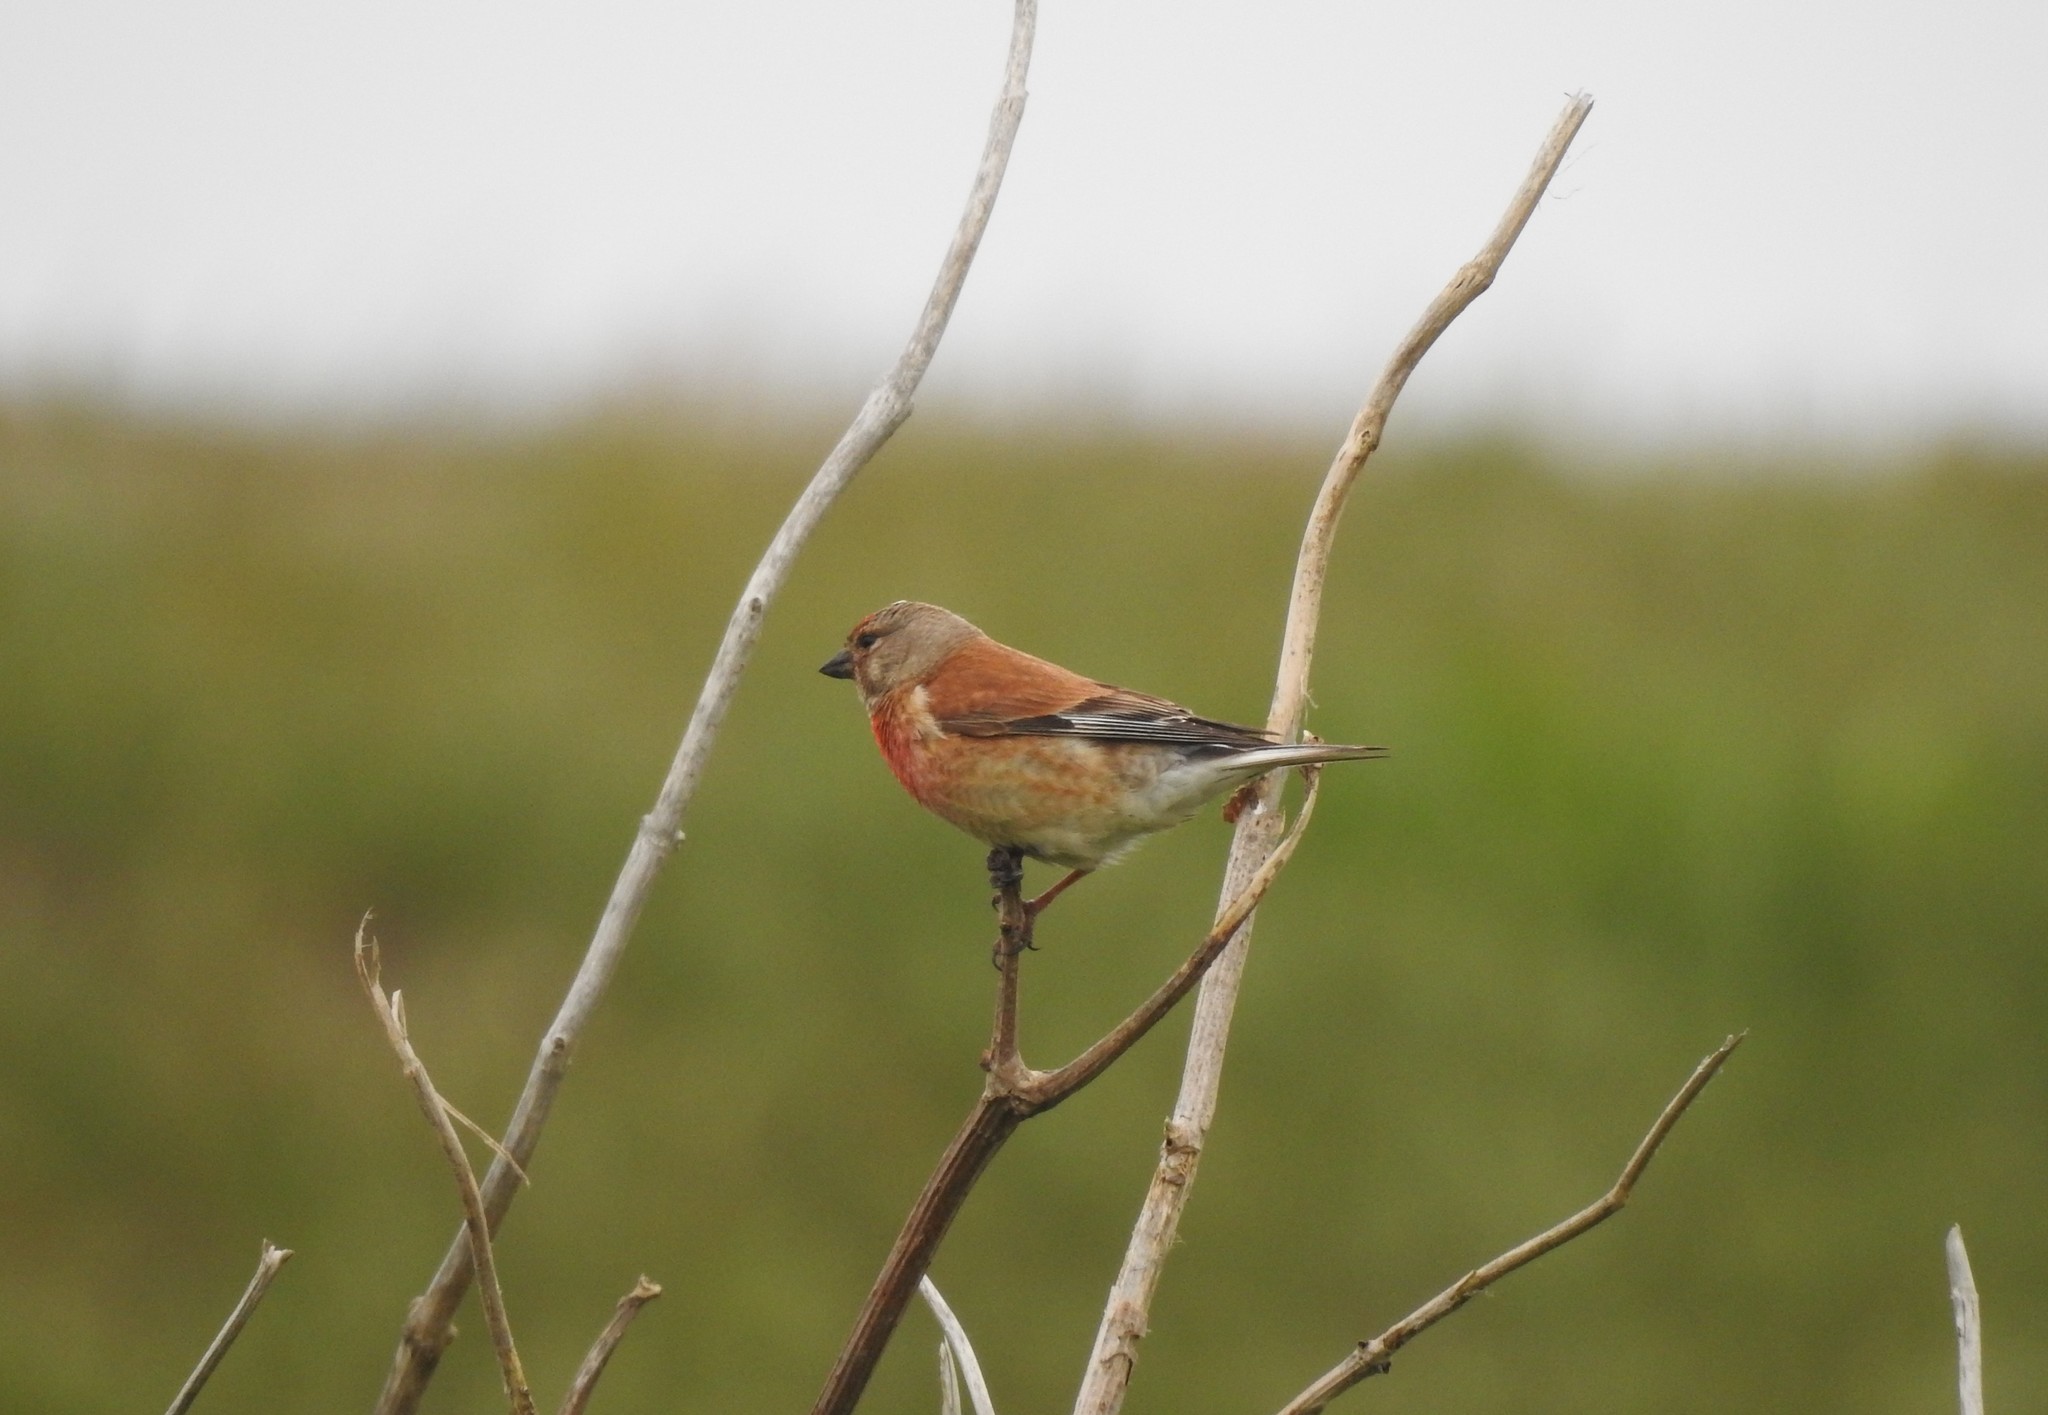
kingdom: Animalia
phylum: Chordata
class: Aves
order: Passeriformes
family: Fringillidae
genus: Linaria
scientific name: Linaria cannabina
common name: Common linnet
